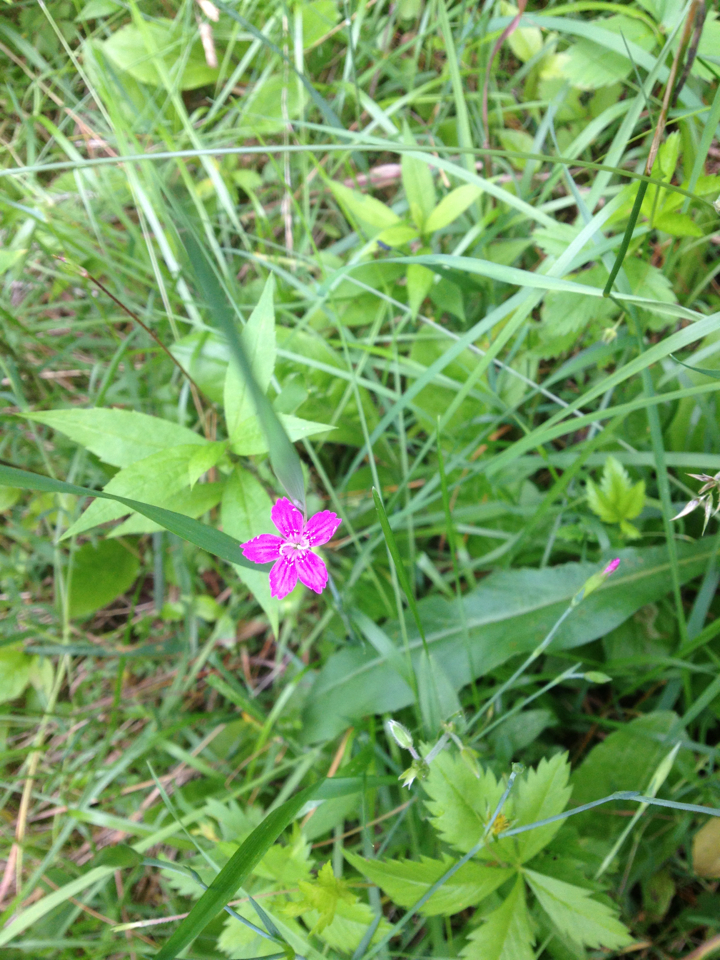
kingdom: Plantae
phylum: Tracheophyta
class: Magnoliopsida
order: Caryophyllales
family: Caryophyllaceae
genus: Dianthus
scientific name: Dianthus deltoides
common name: Maiden pink
